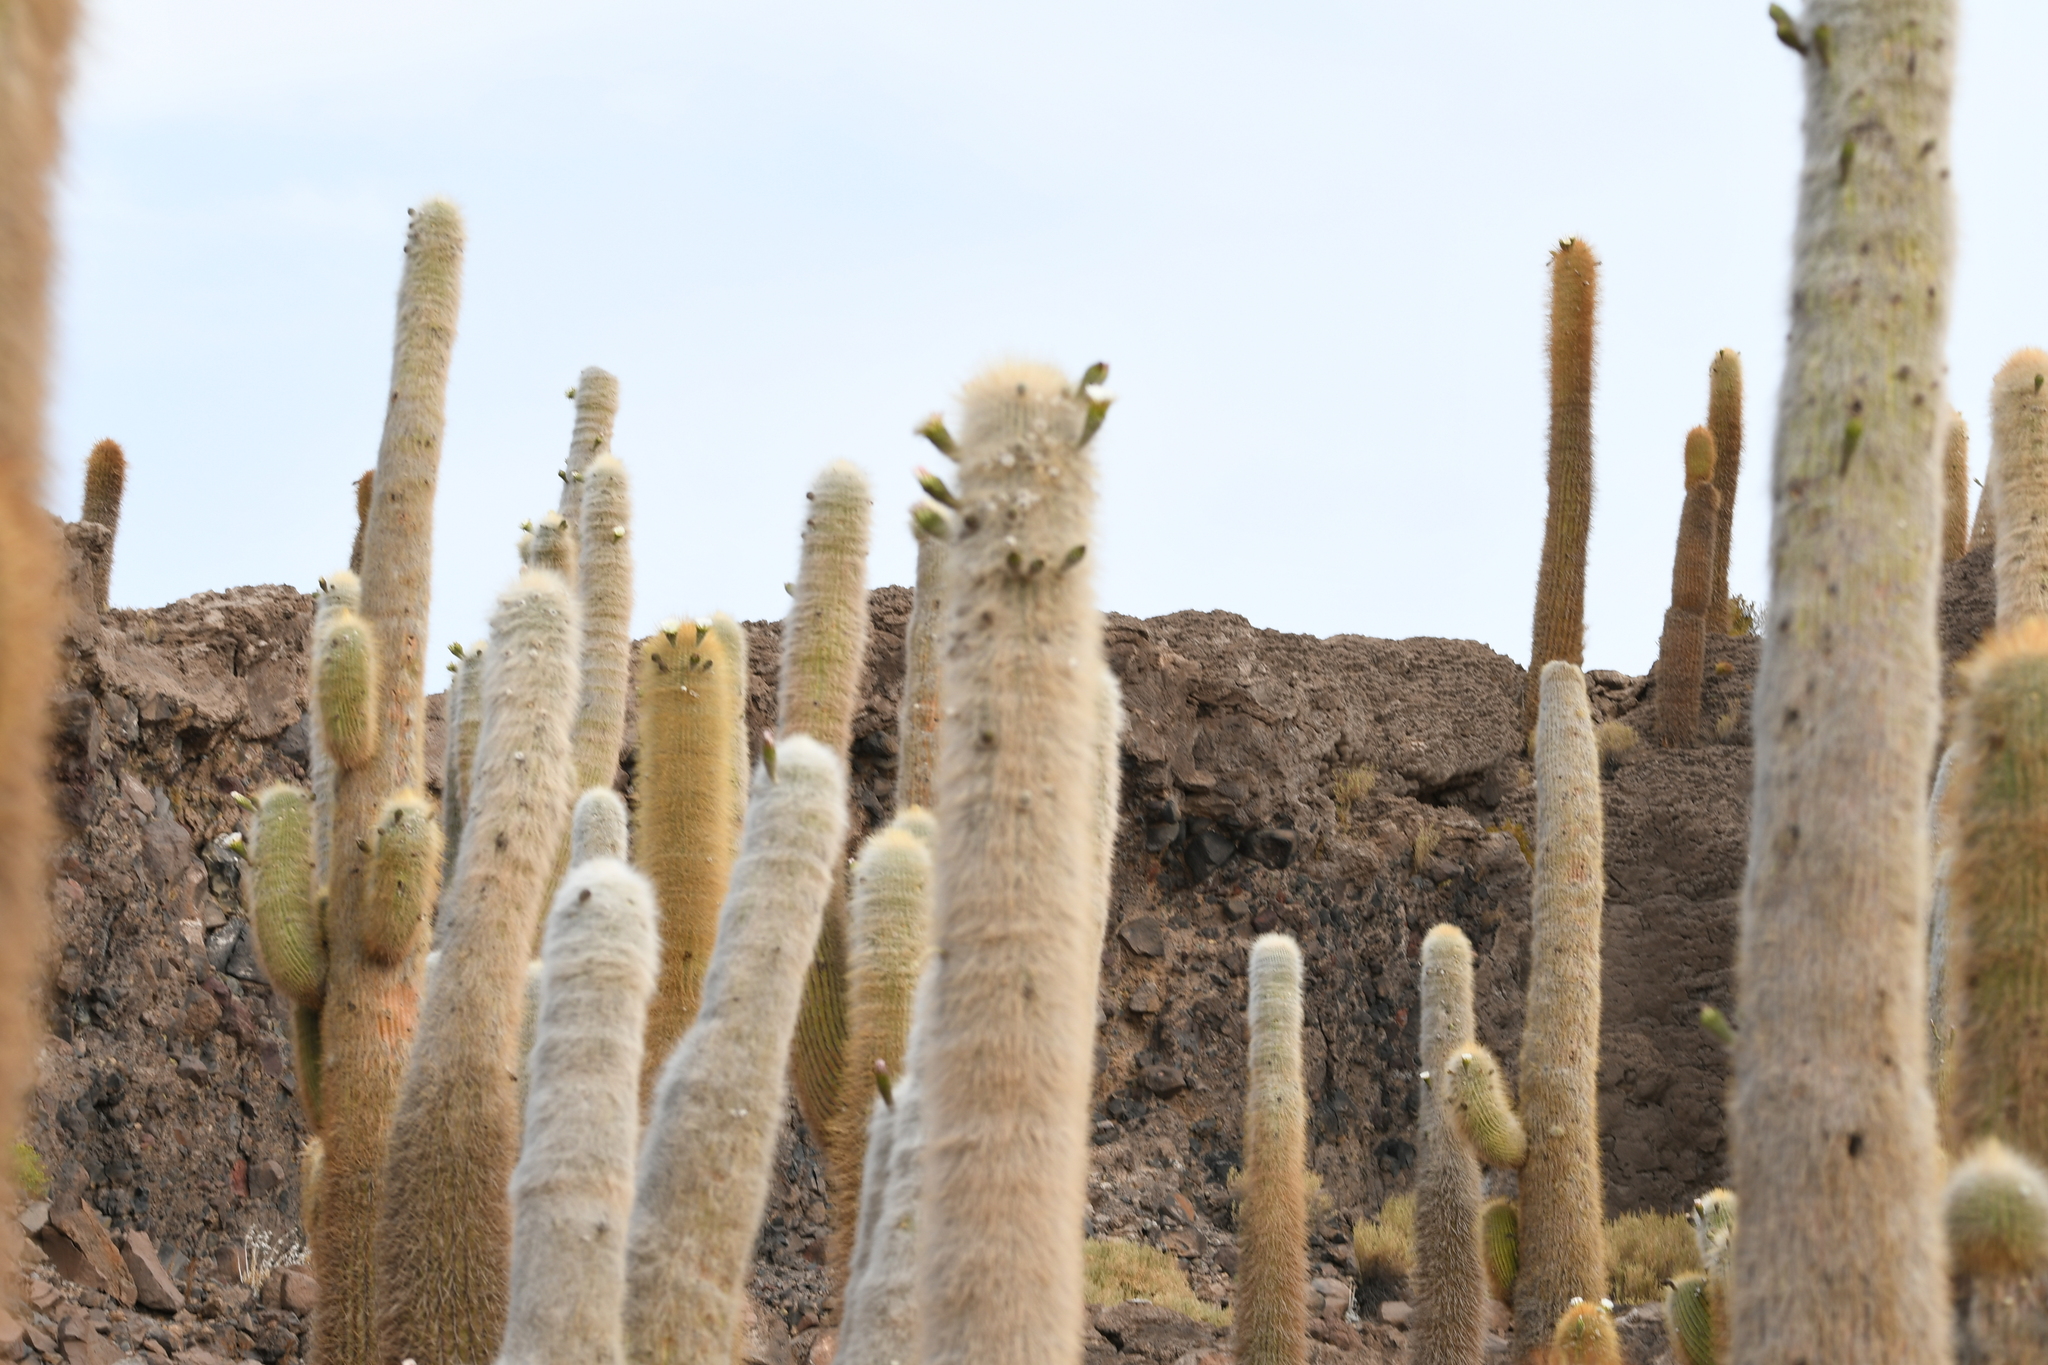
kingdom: Plantae
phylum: Tracheophyta
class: Magnoliopsida
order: Caryophyllales
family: Cactaceae
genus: Leucostele
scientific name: Leucostele atacamensis
